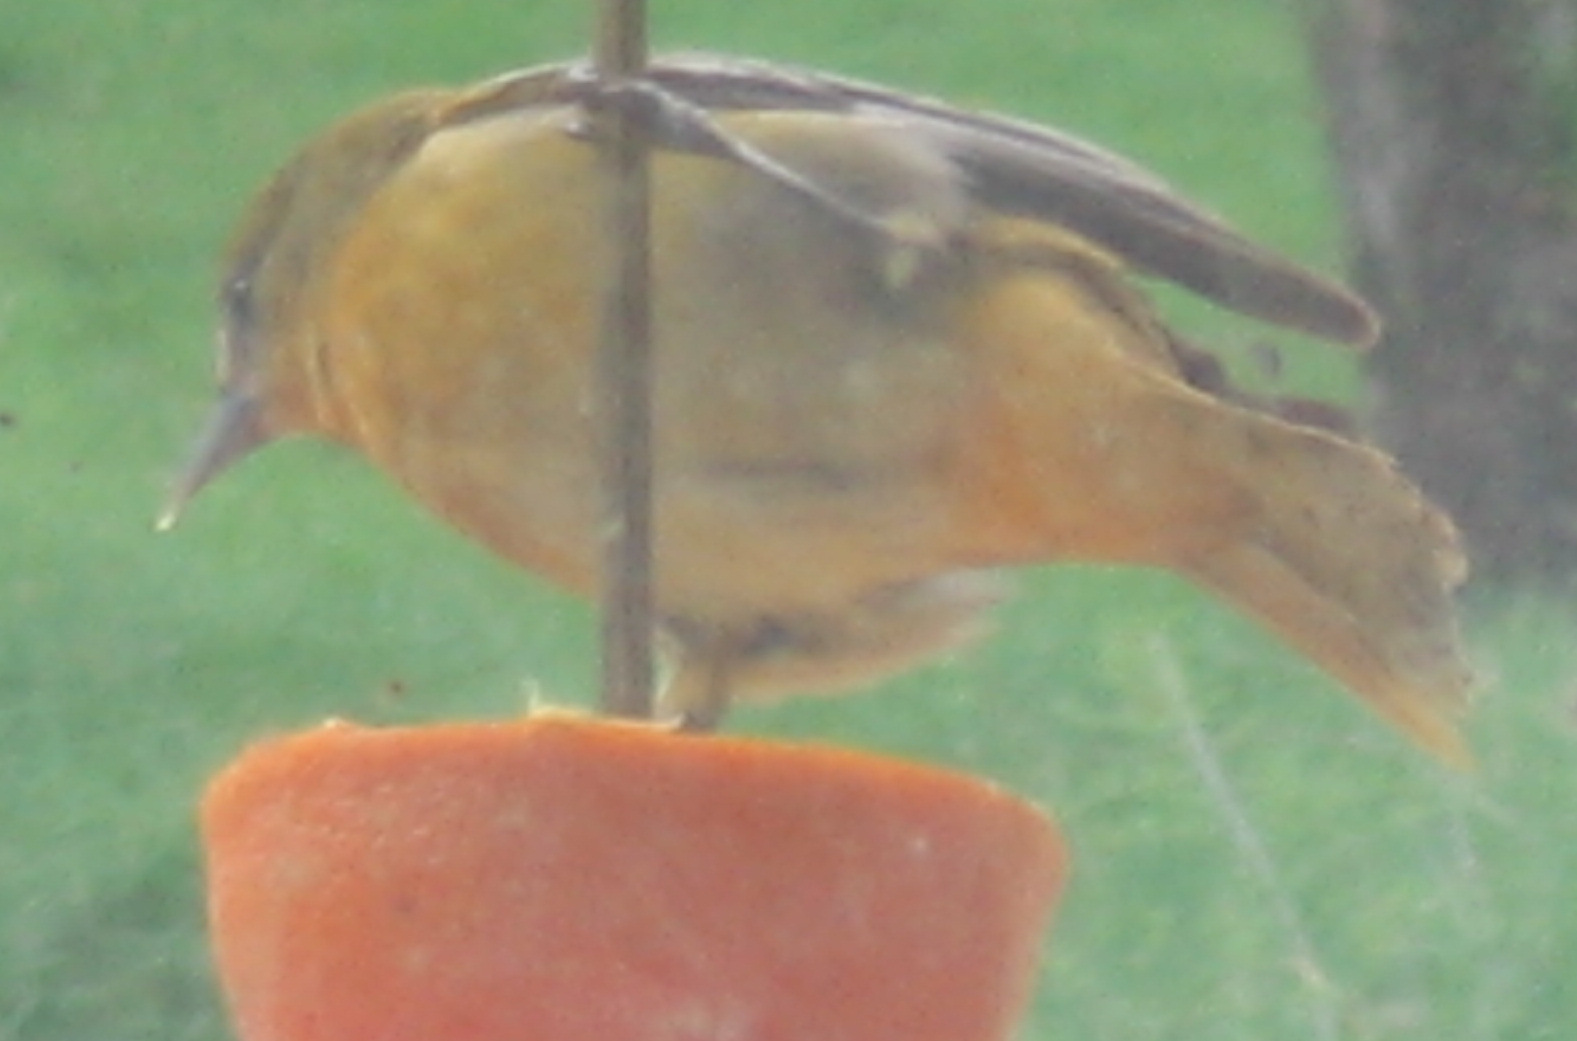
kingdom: Animalia
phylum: Chordata
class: Aves
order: Passeriformes
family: Icteridae
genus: Icterus
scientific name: Icterus galbula
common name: Baltimore oriole
